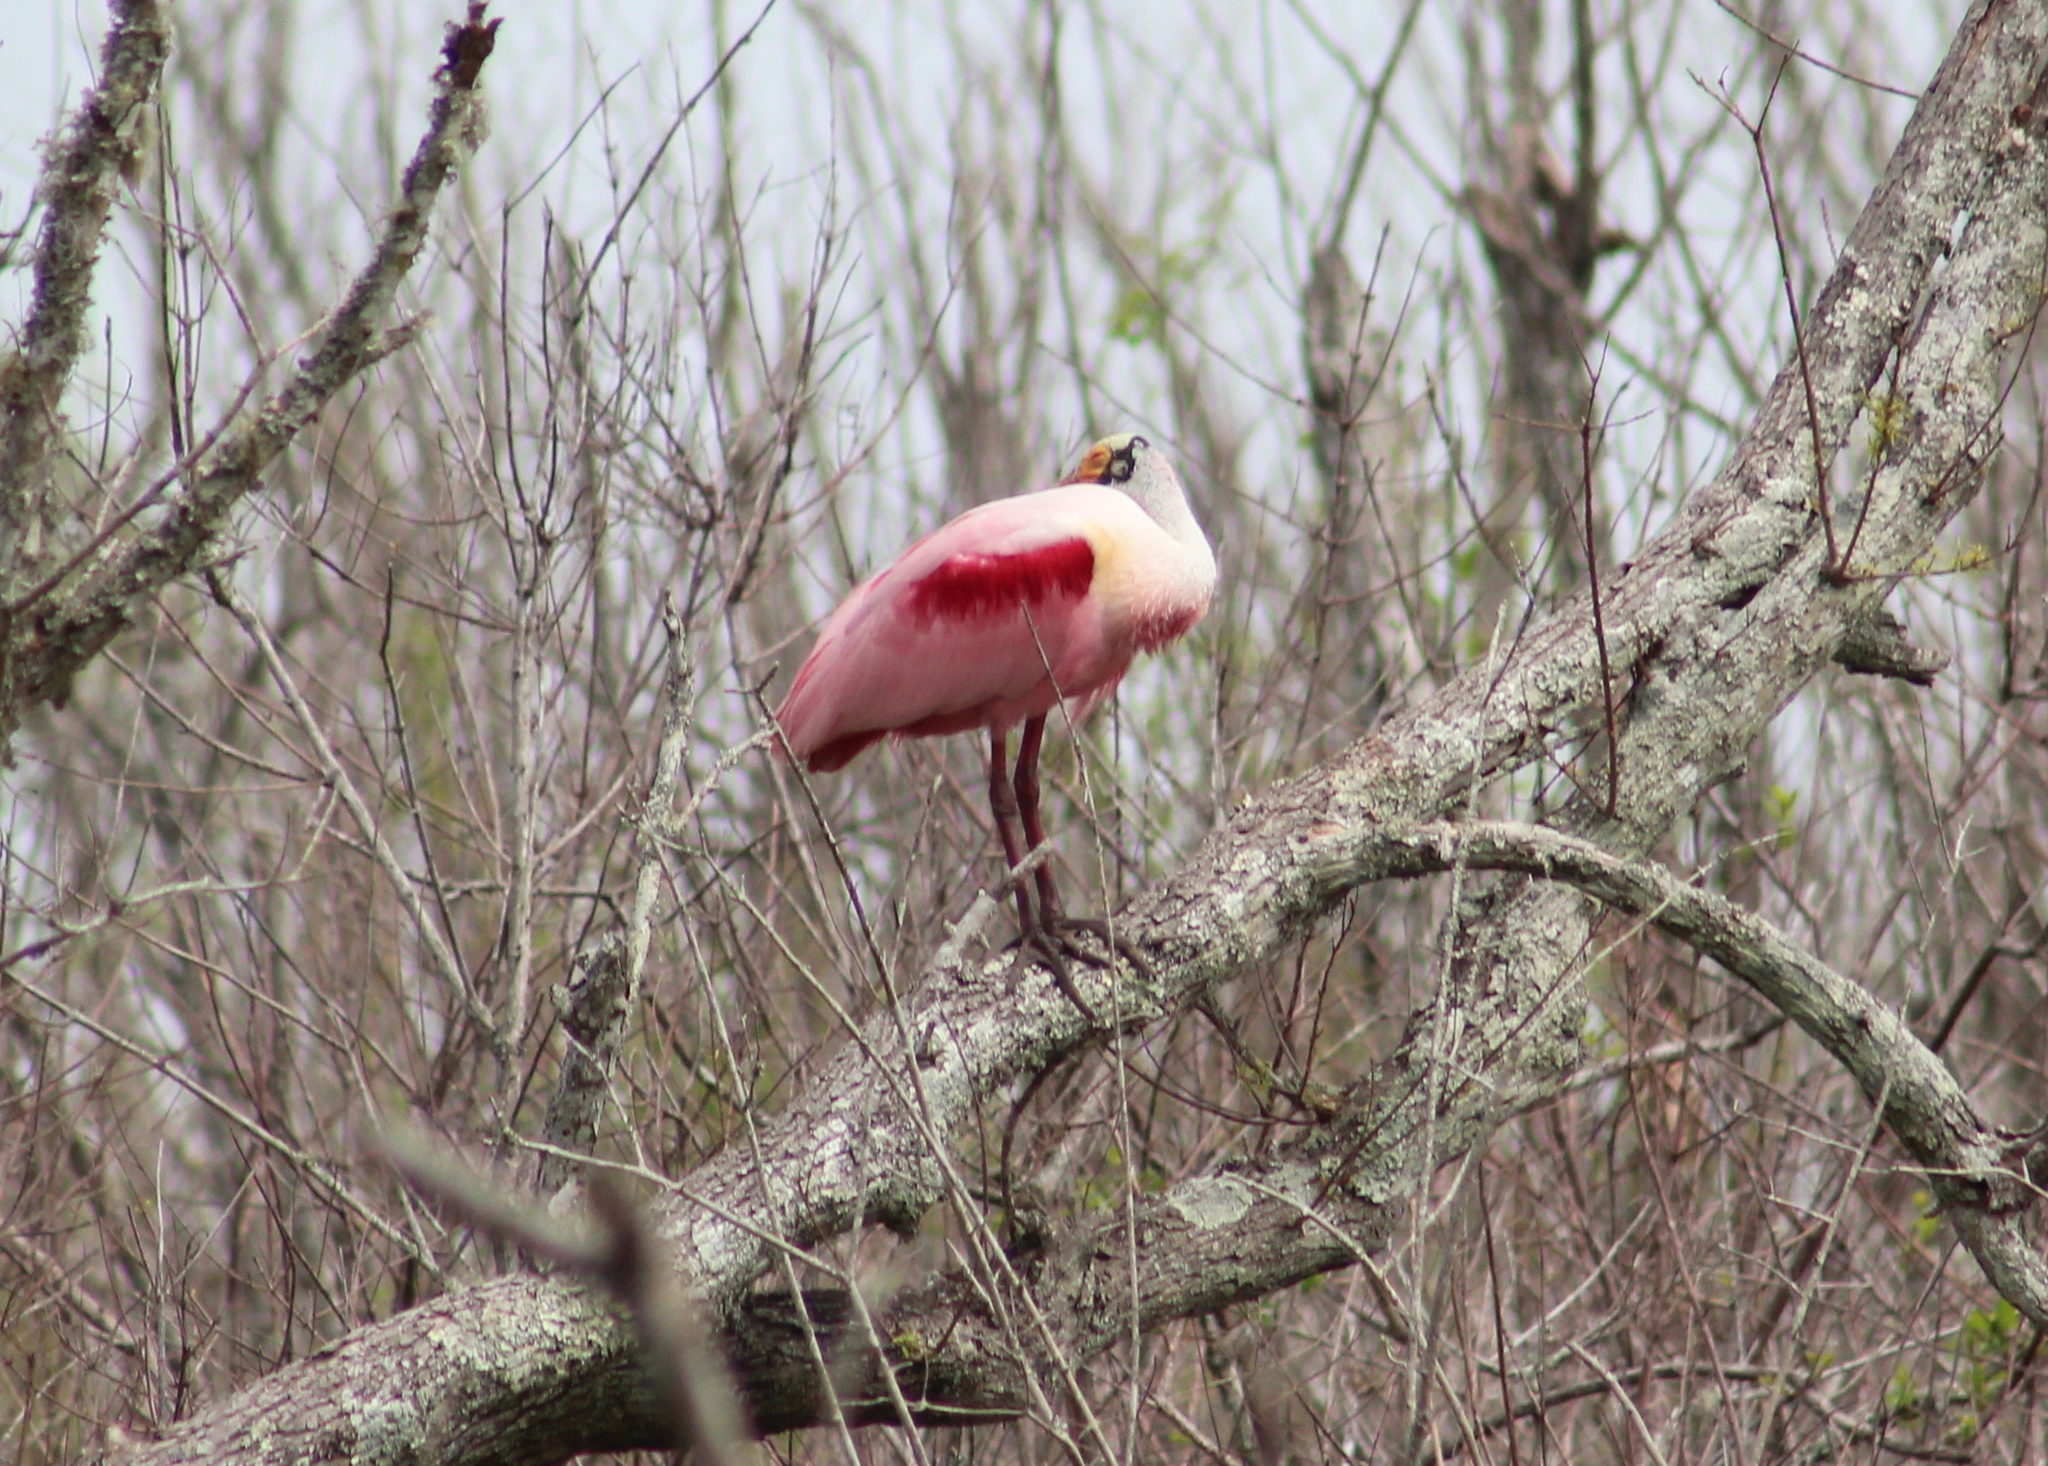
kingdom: Animalia
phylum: Chordata
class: Aves
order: Pelecaniformes
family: Threskiornithidae
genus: Platalea
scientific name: Platalea ajaja
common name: Roseate spoonbill
